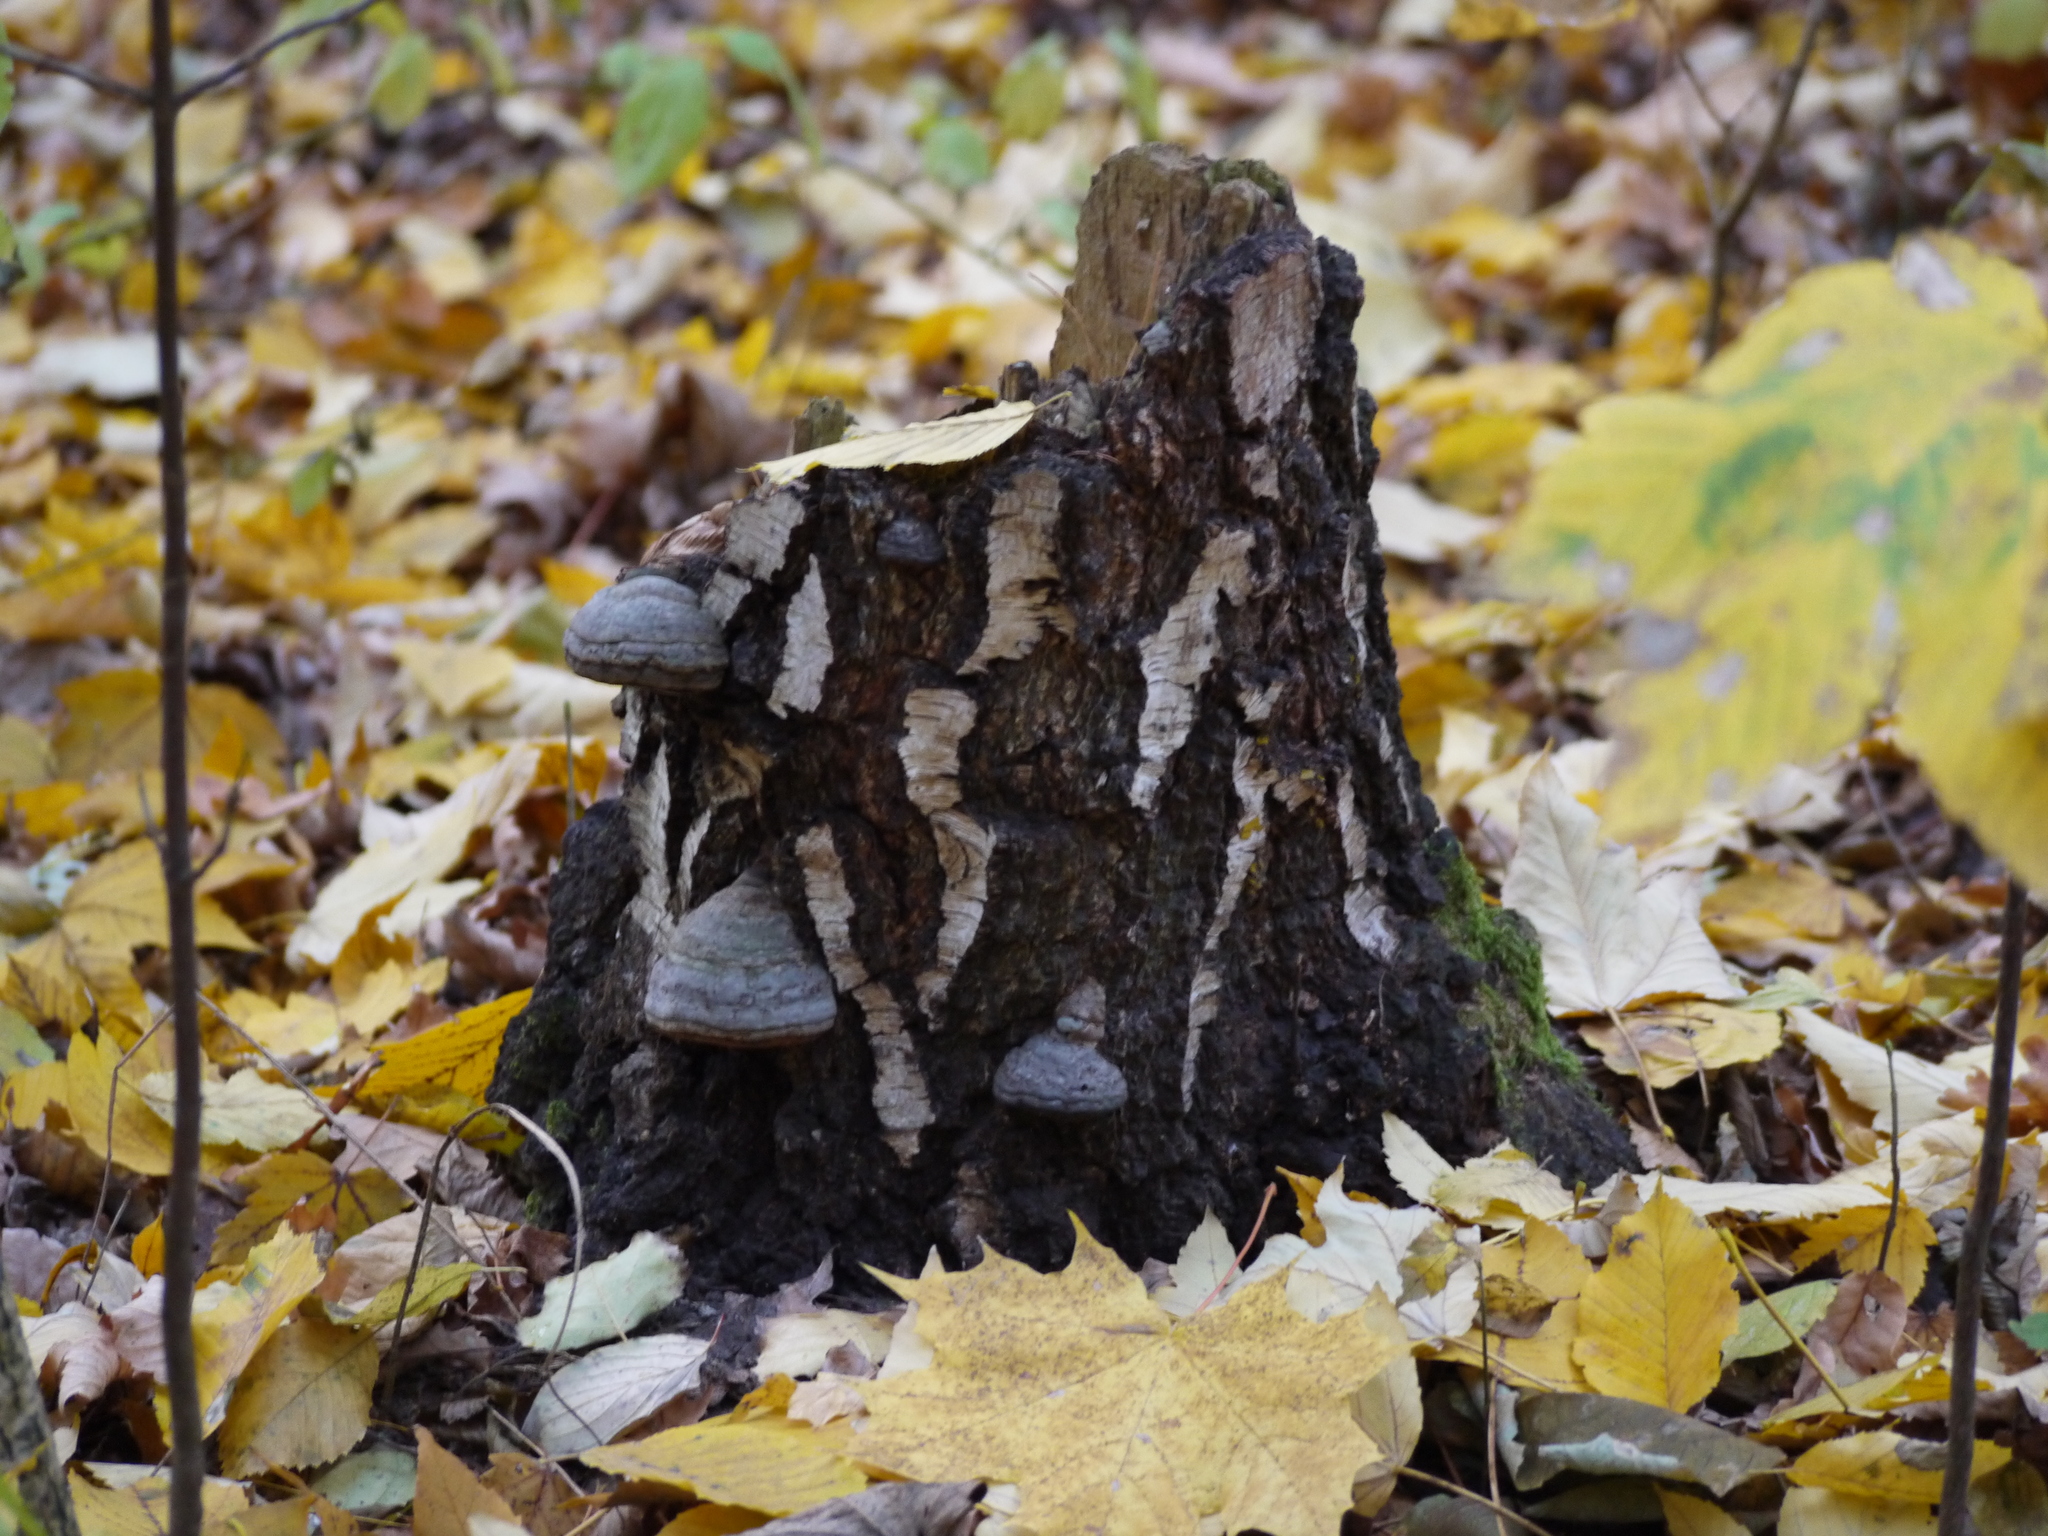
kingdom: Fungi
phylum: Basidiomycota
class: Agaricomycetes
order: Polyporales
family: Polyporaceae
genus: Fomes
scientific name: Fomes fomentarius
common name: Hoof fungus
